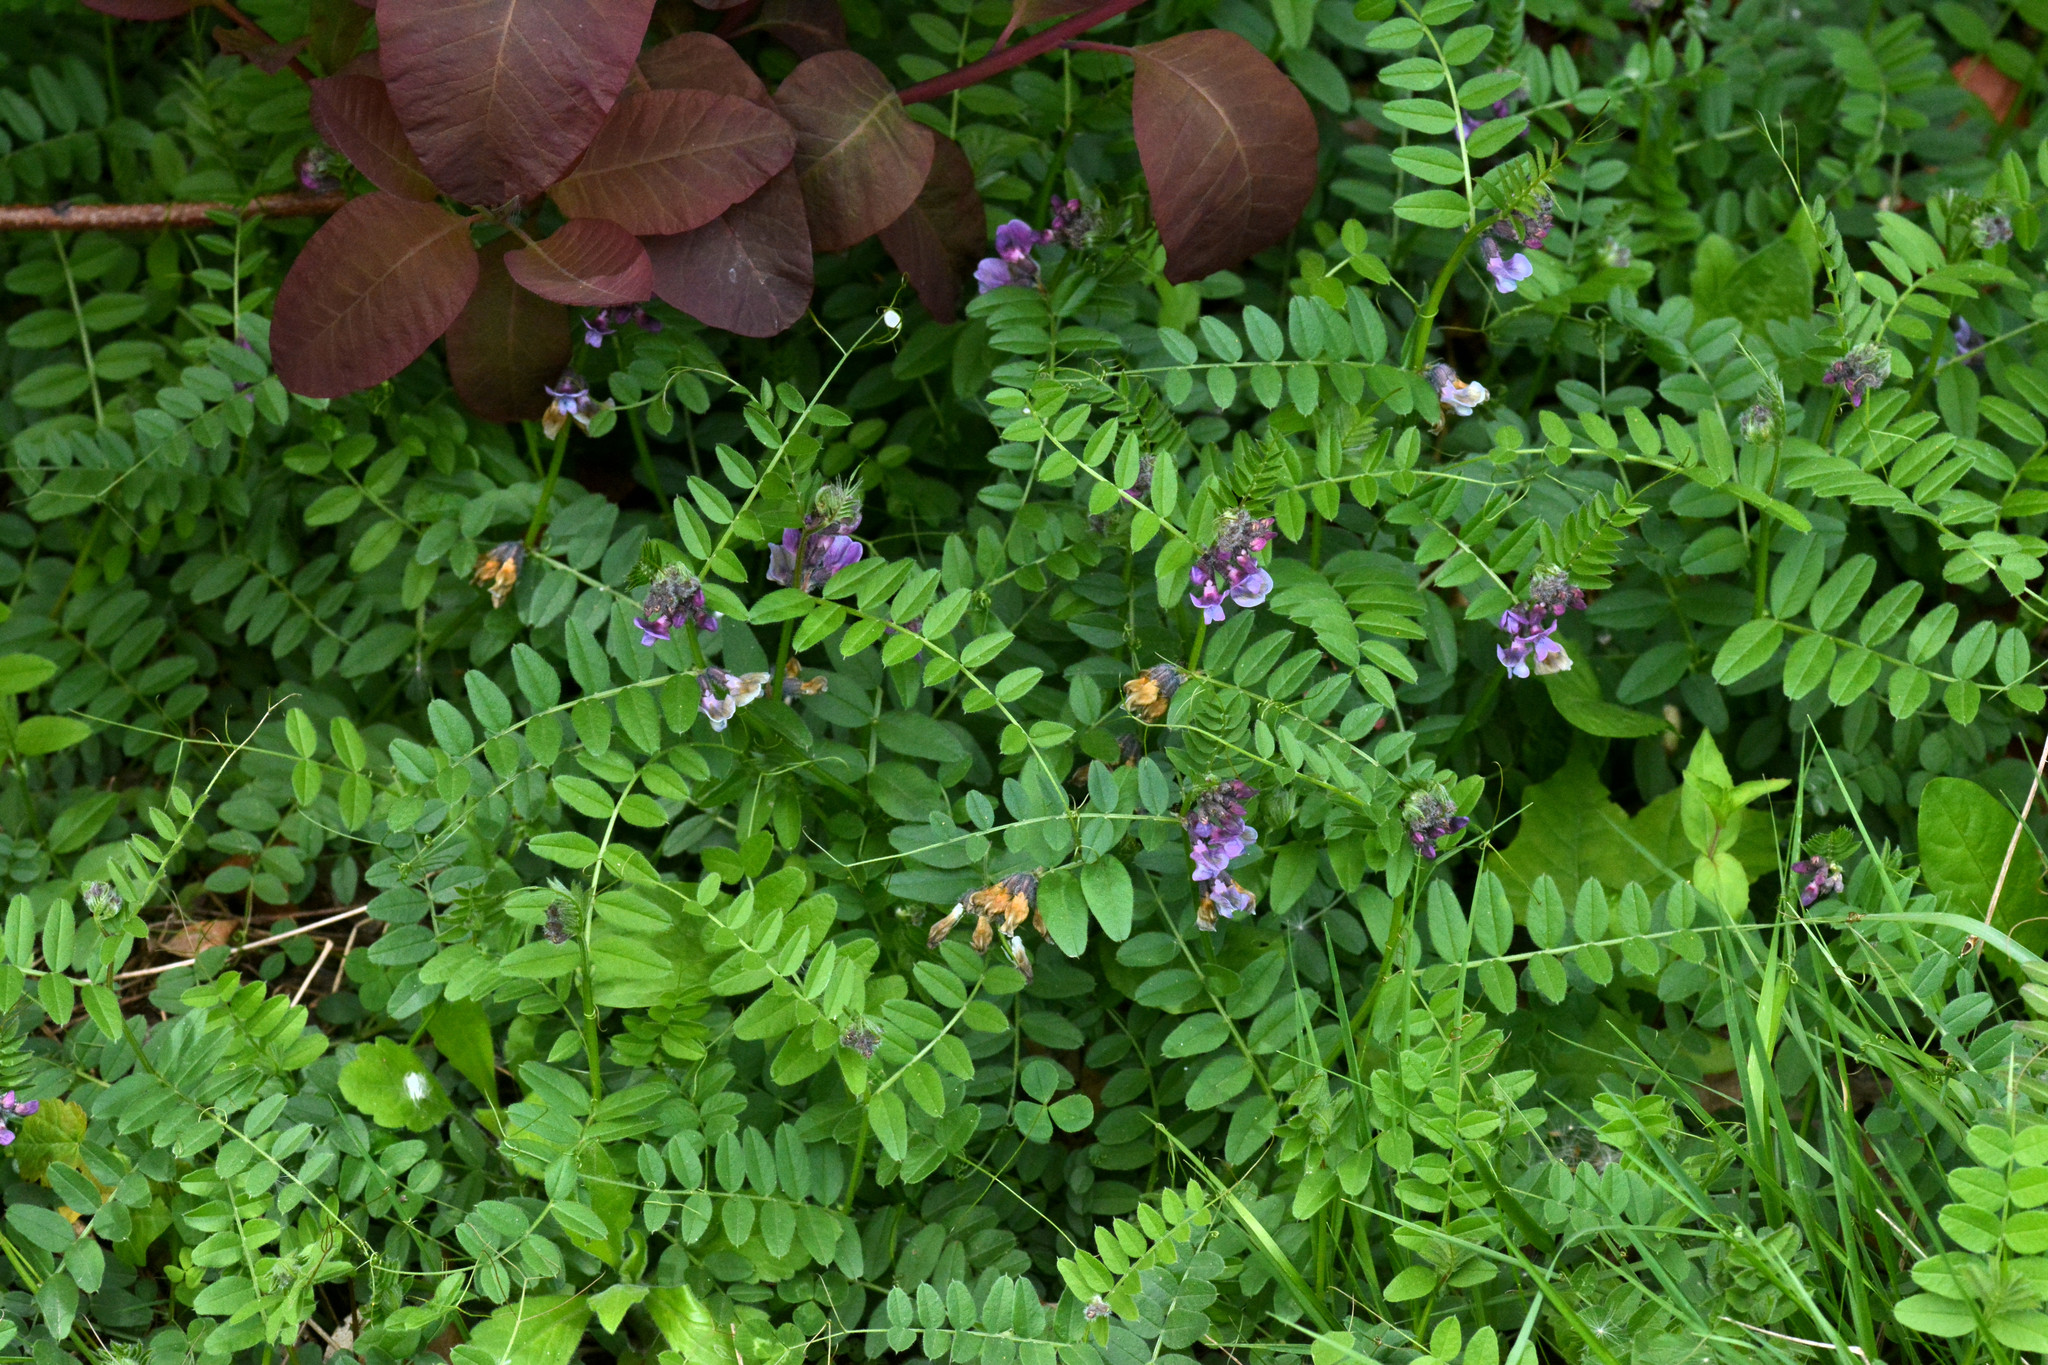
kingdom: Plantae
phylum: Tracheophyta
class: Magnoliopsida
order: Fabales
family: Fabaceae
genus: Vicia
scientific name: Vicia sepium
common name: Bush vetch
